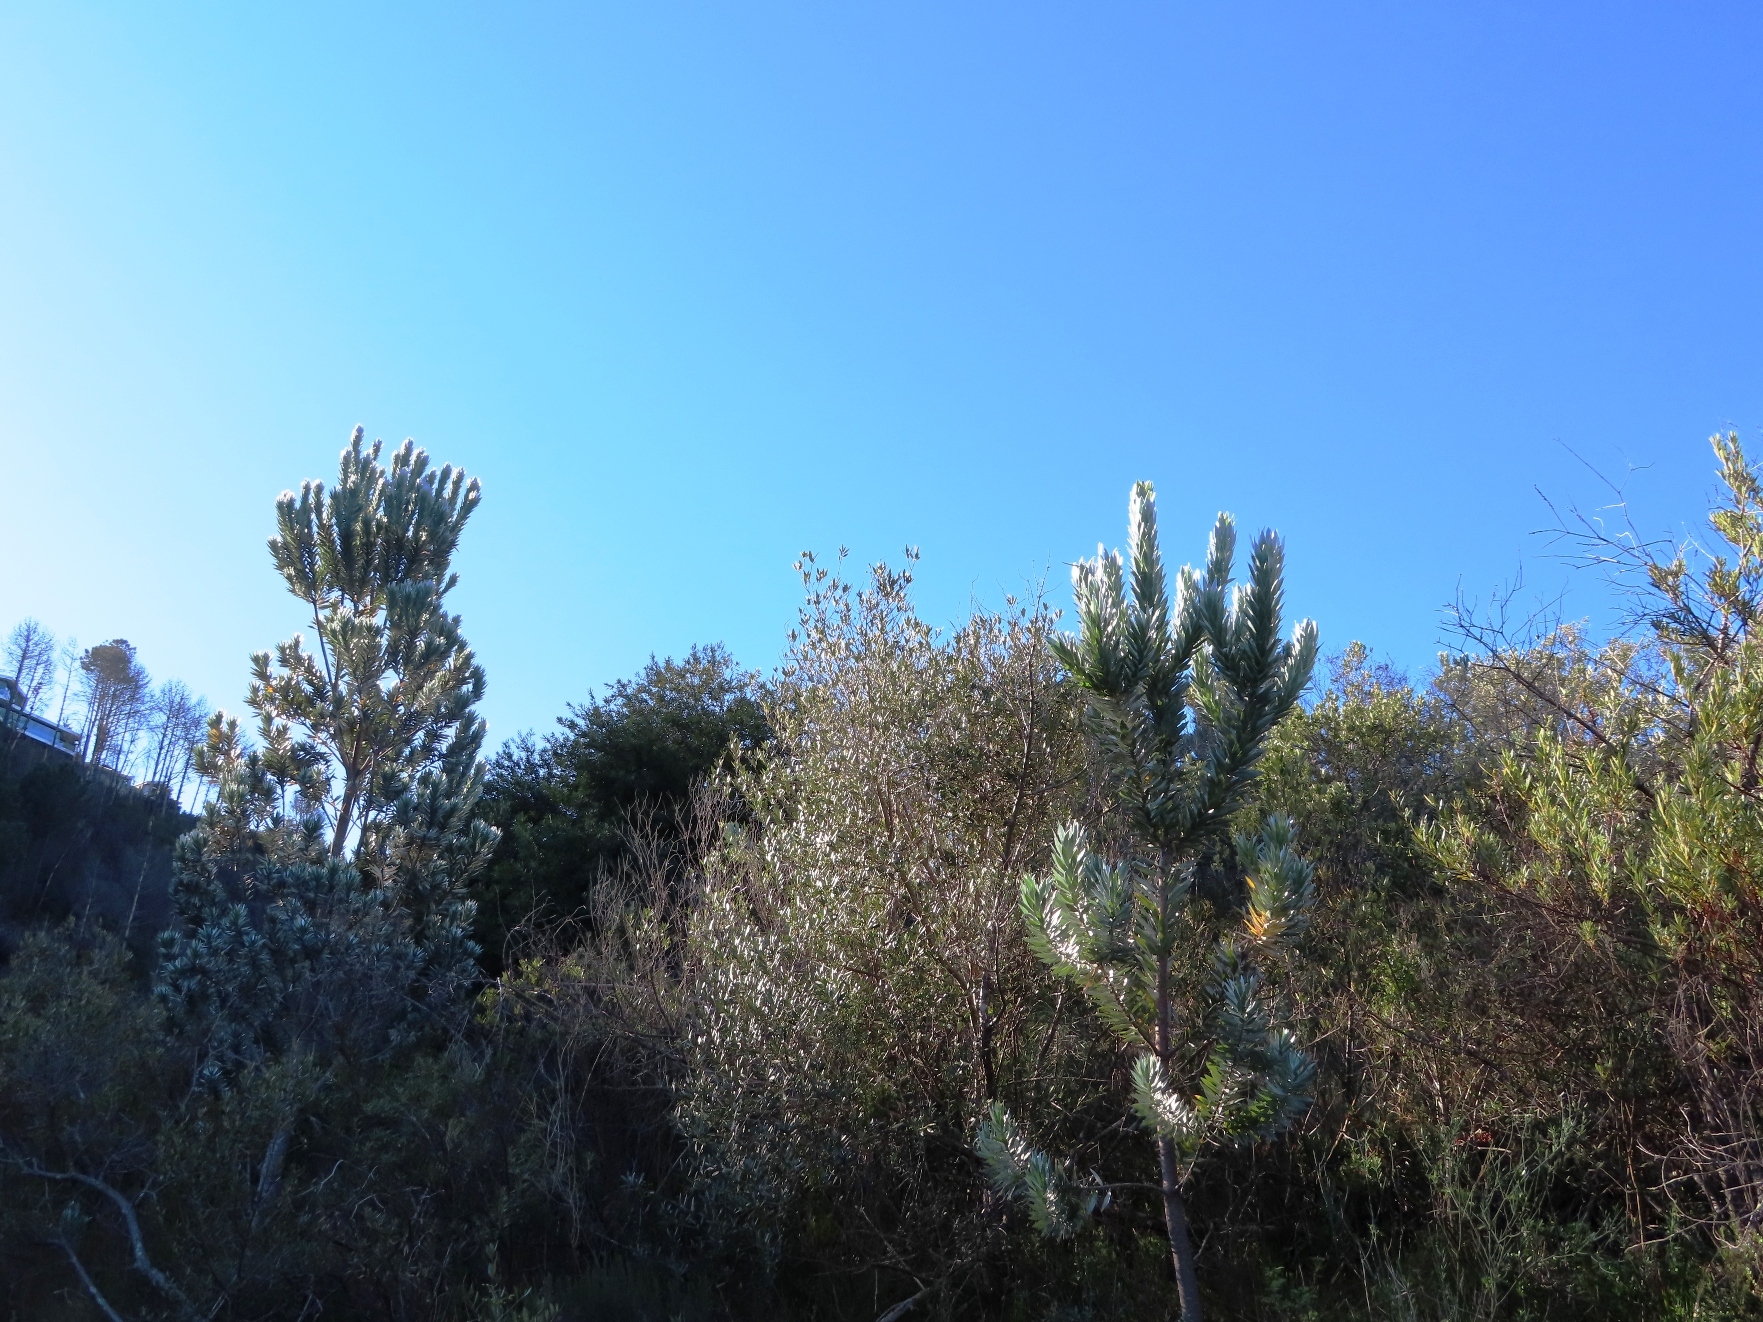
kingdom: Plantae
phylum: Tracheophyta
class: Magnoliopsida
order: Proteales
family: Proteaceae
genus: Leucadendron
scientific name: Leucadendron argenteum
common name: Cape silver tree
